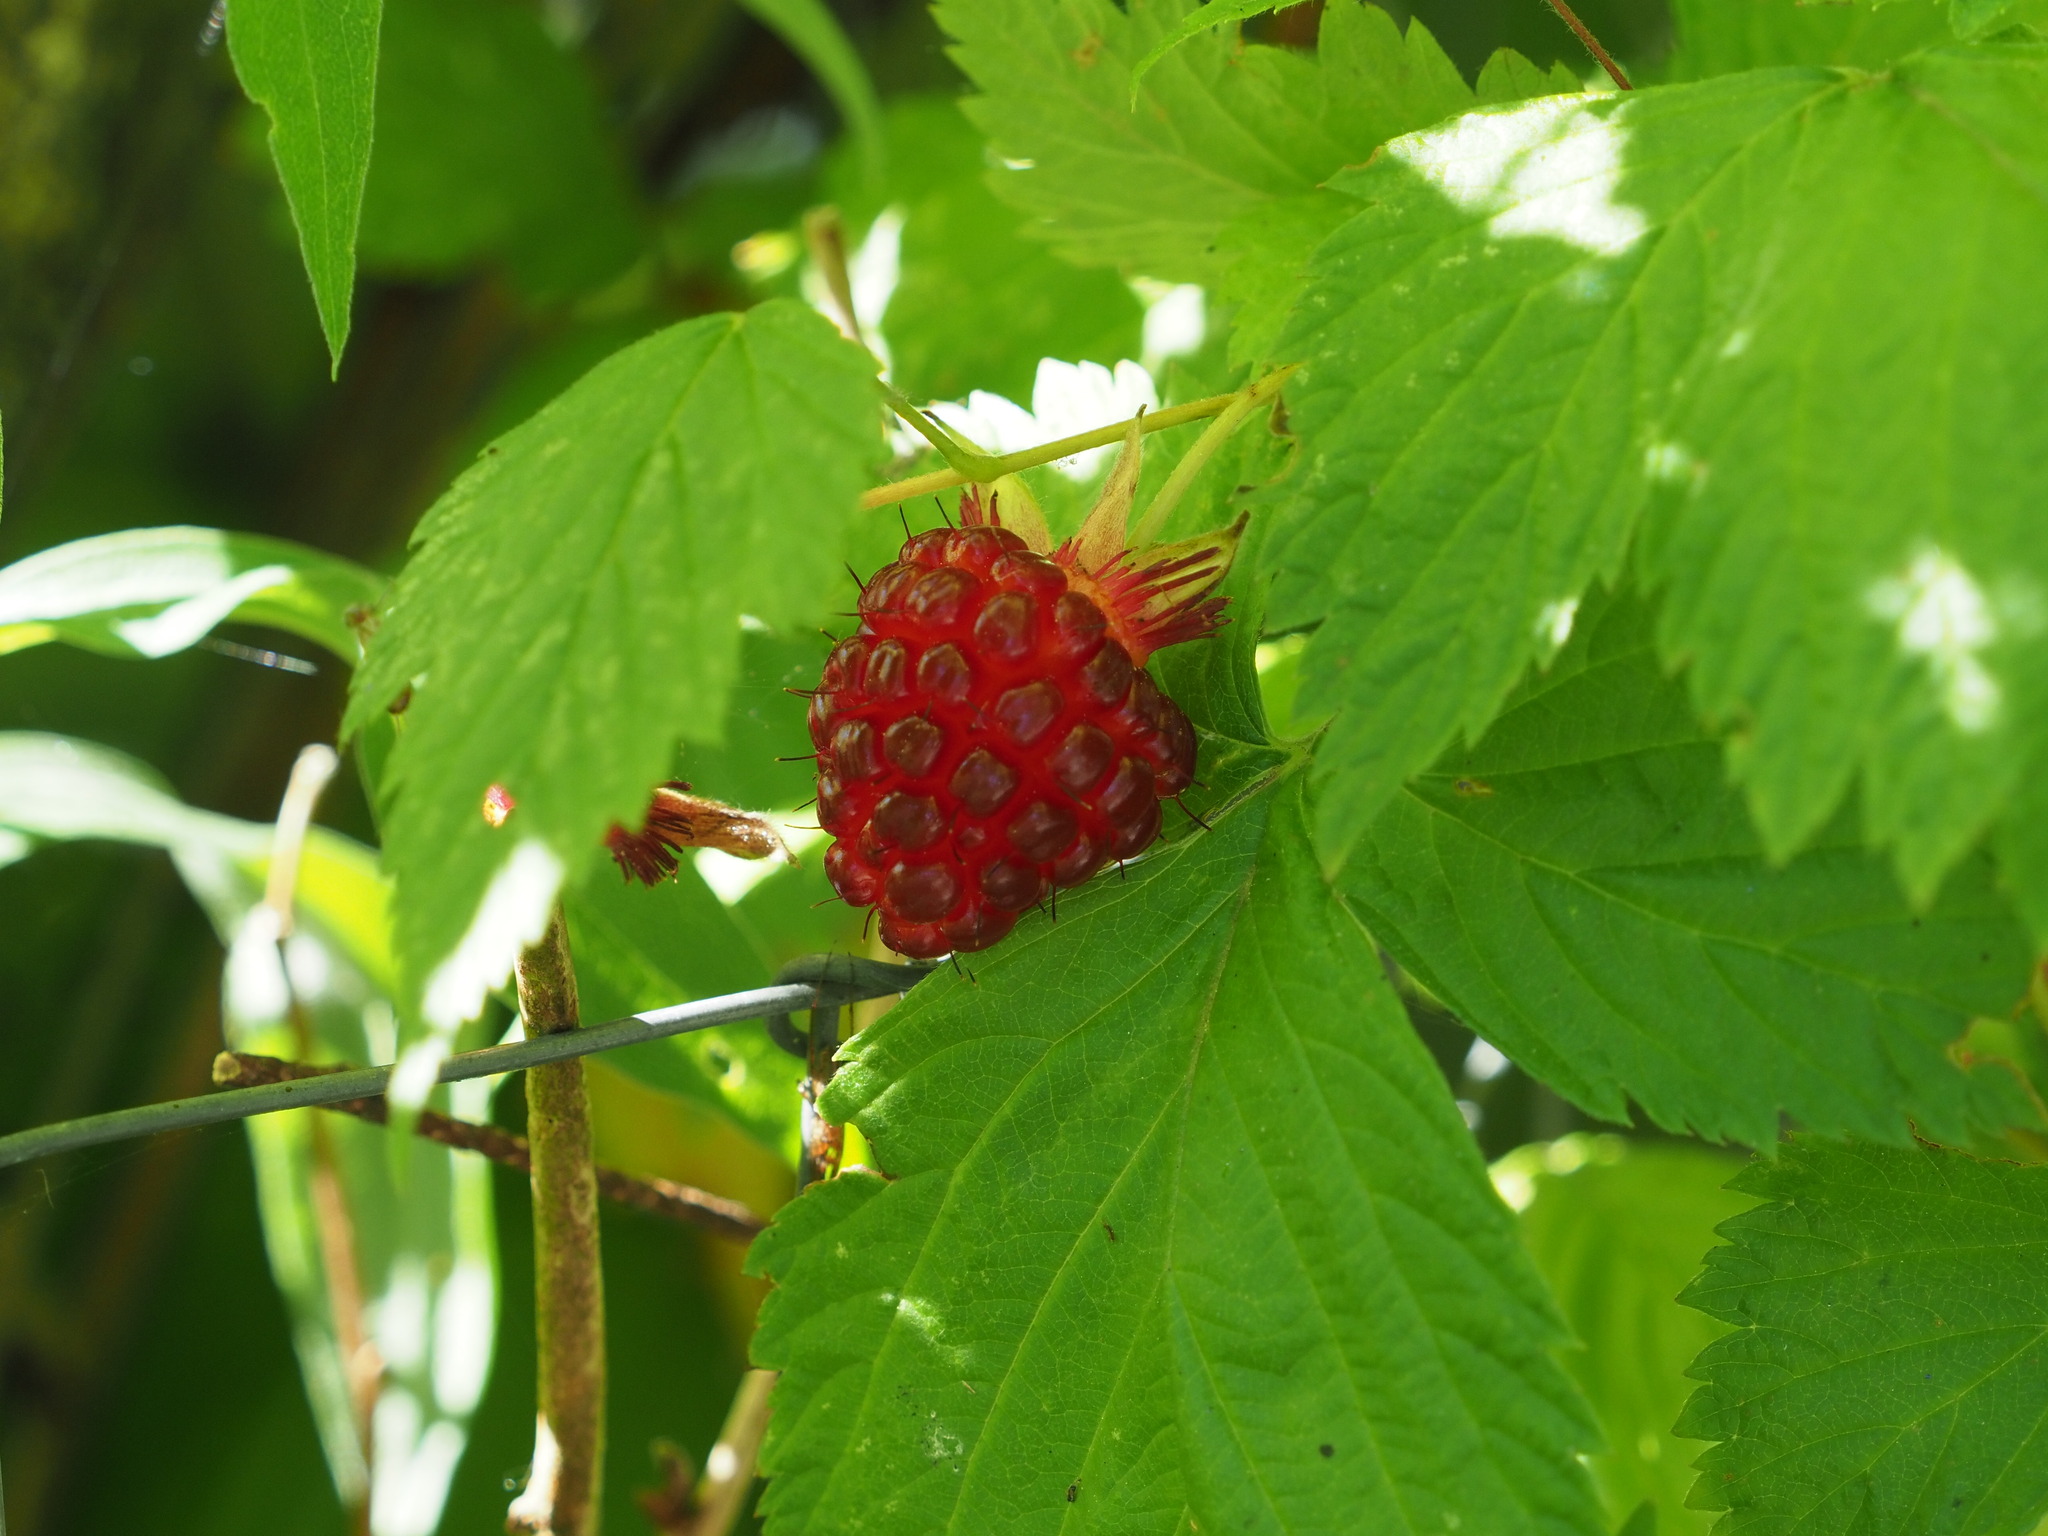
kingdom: Plantae
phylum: Tracheophyta
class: Magnoliopsida
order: Rosales
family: Rosaceae
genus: Rubus
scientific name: Rubus spectabilis
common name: Salmonberry
